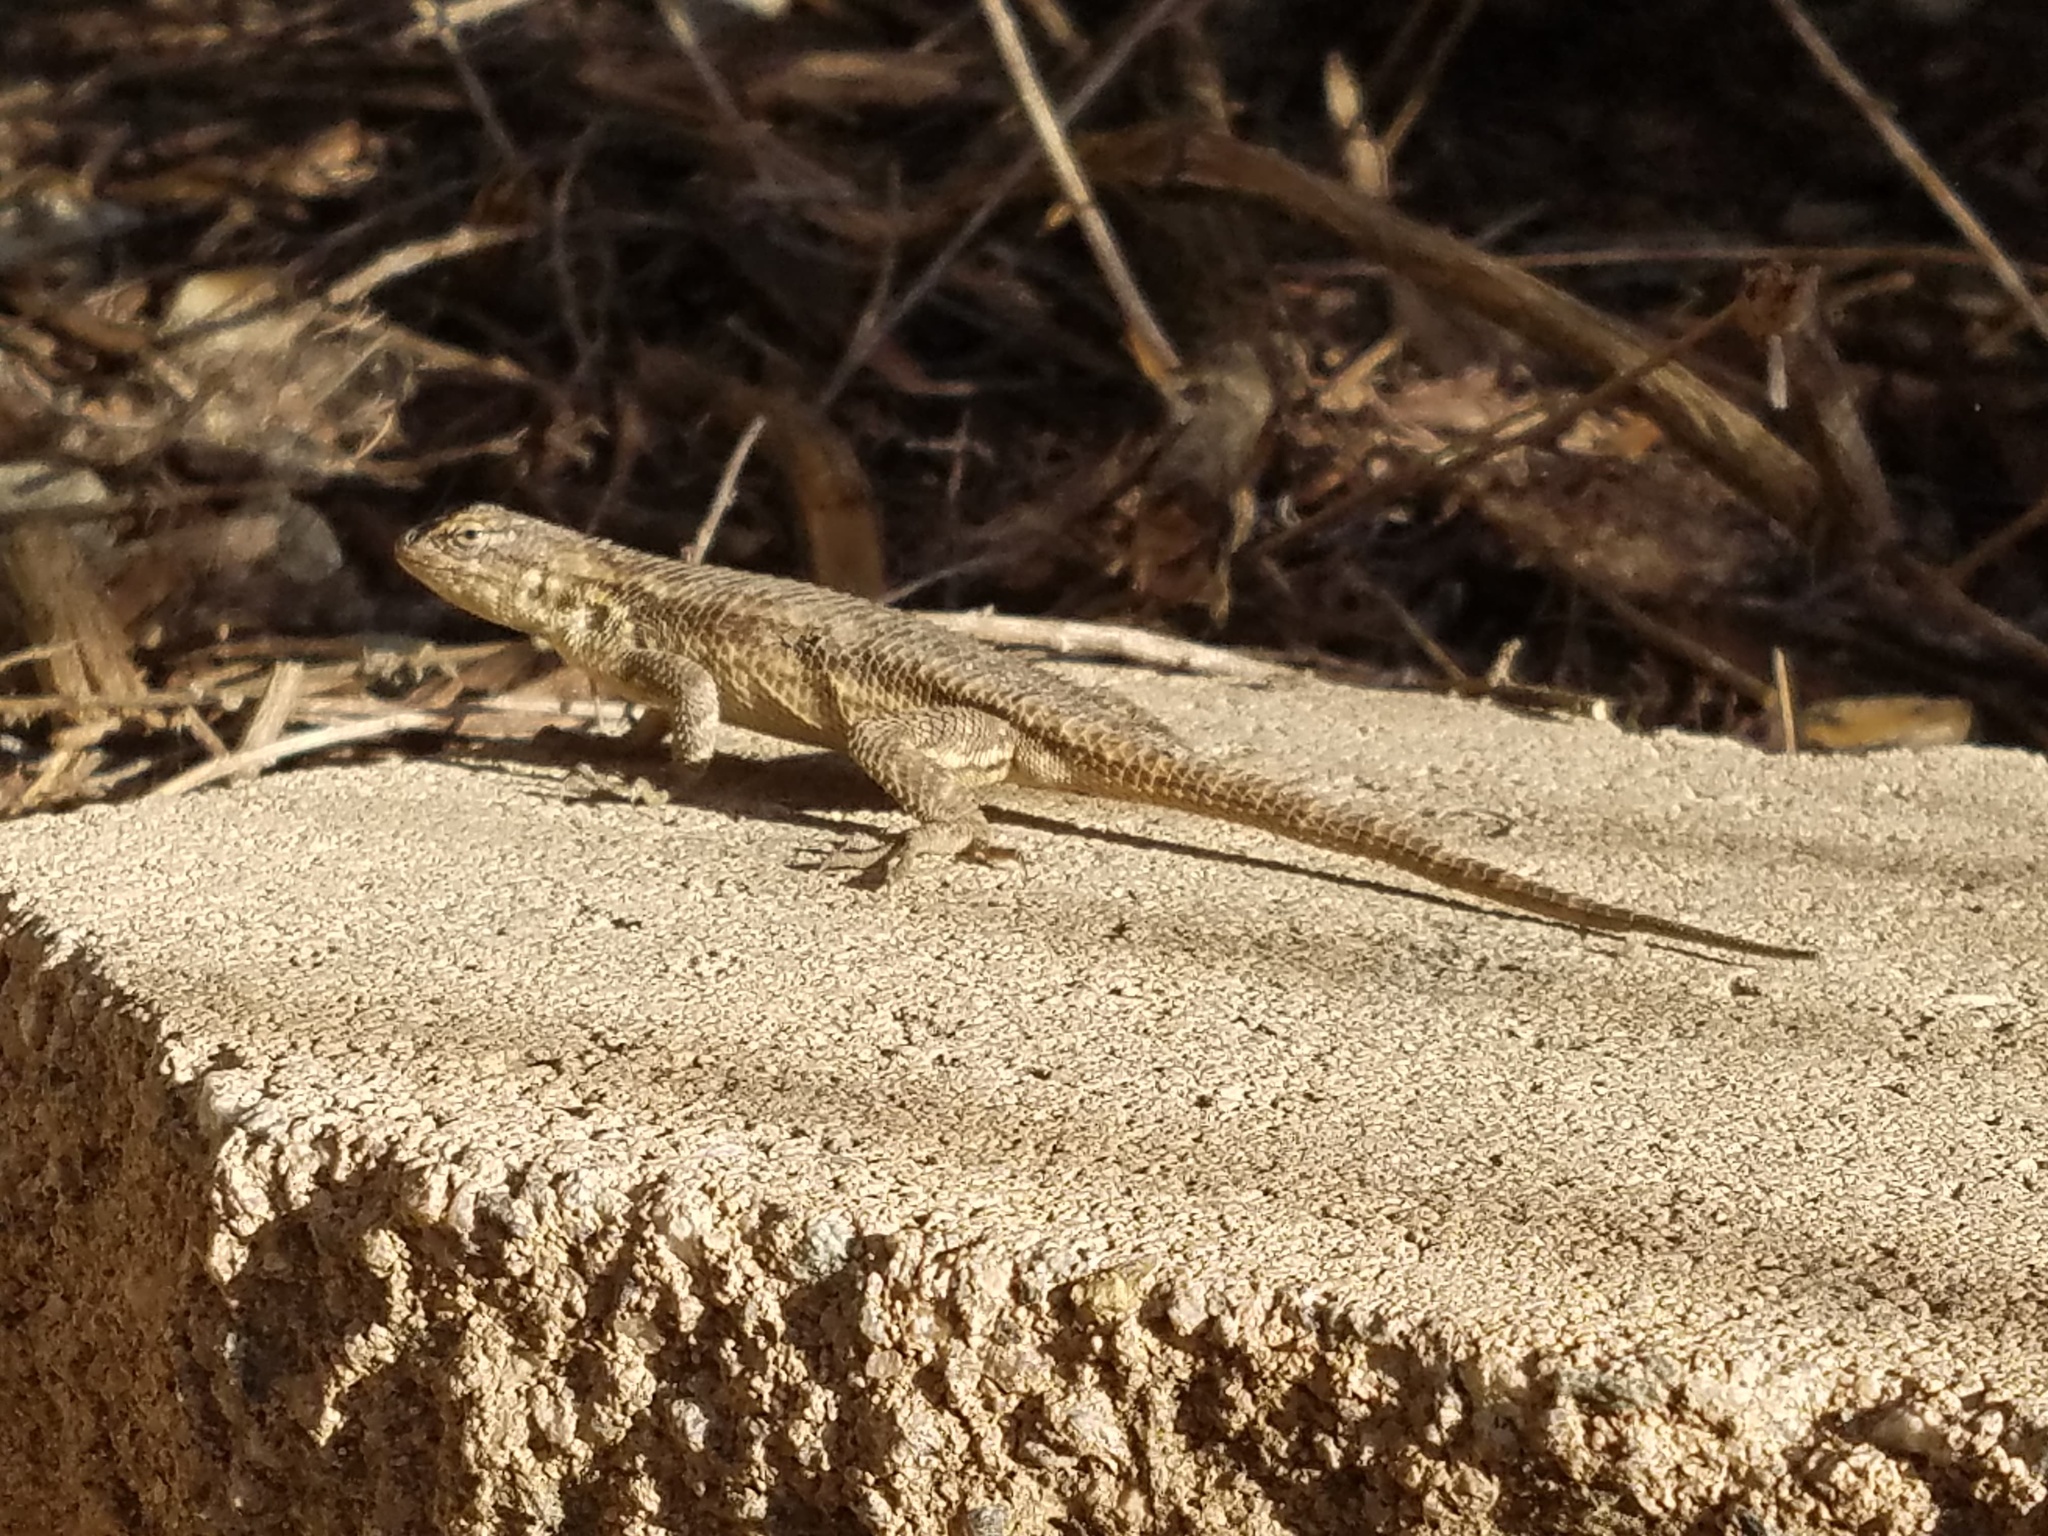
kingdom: Animalia
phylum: Chordata
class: Squamata
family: Phrynosomatidae
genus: Sceloporus
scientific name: Sceloporus occidentalis
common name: Western fence lizard
